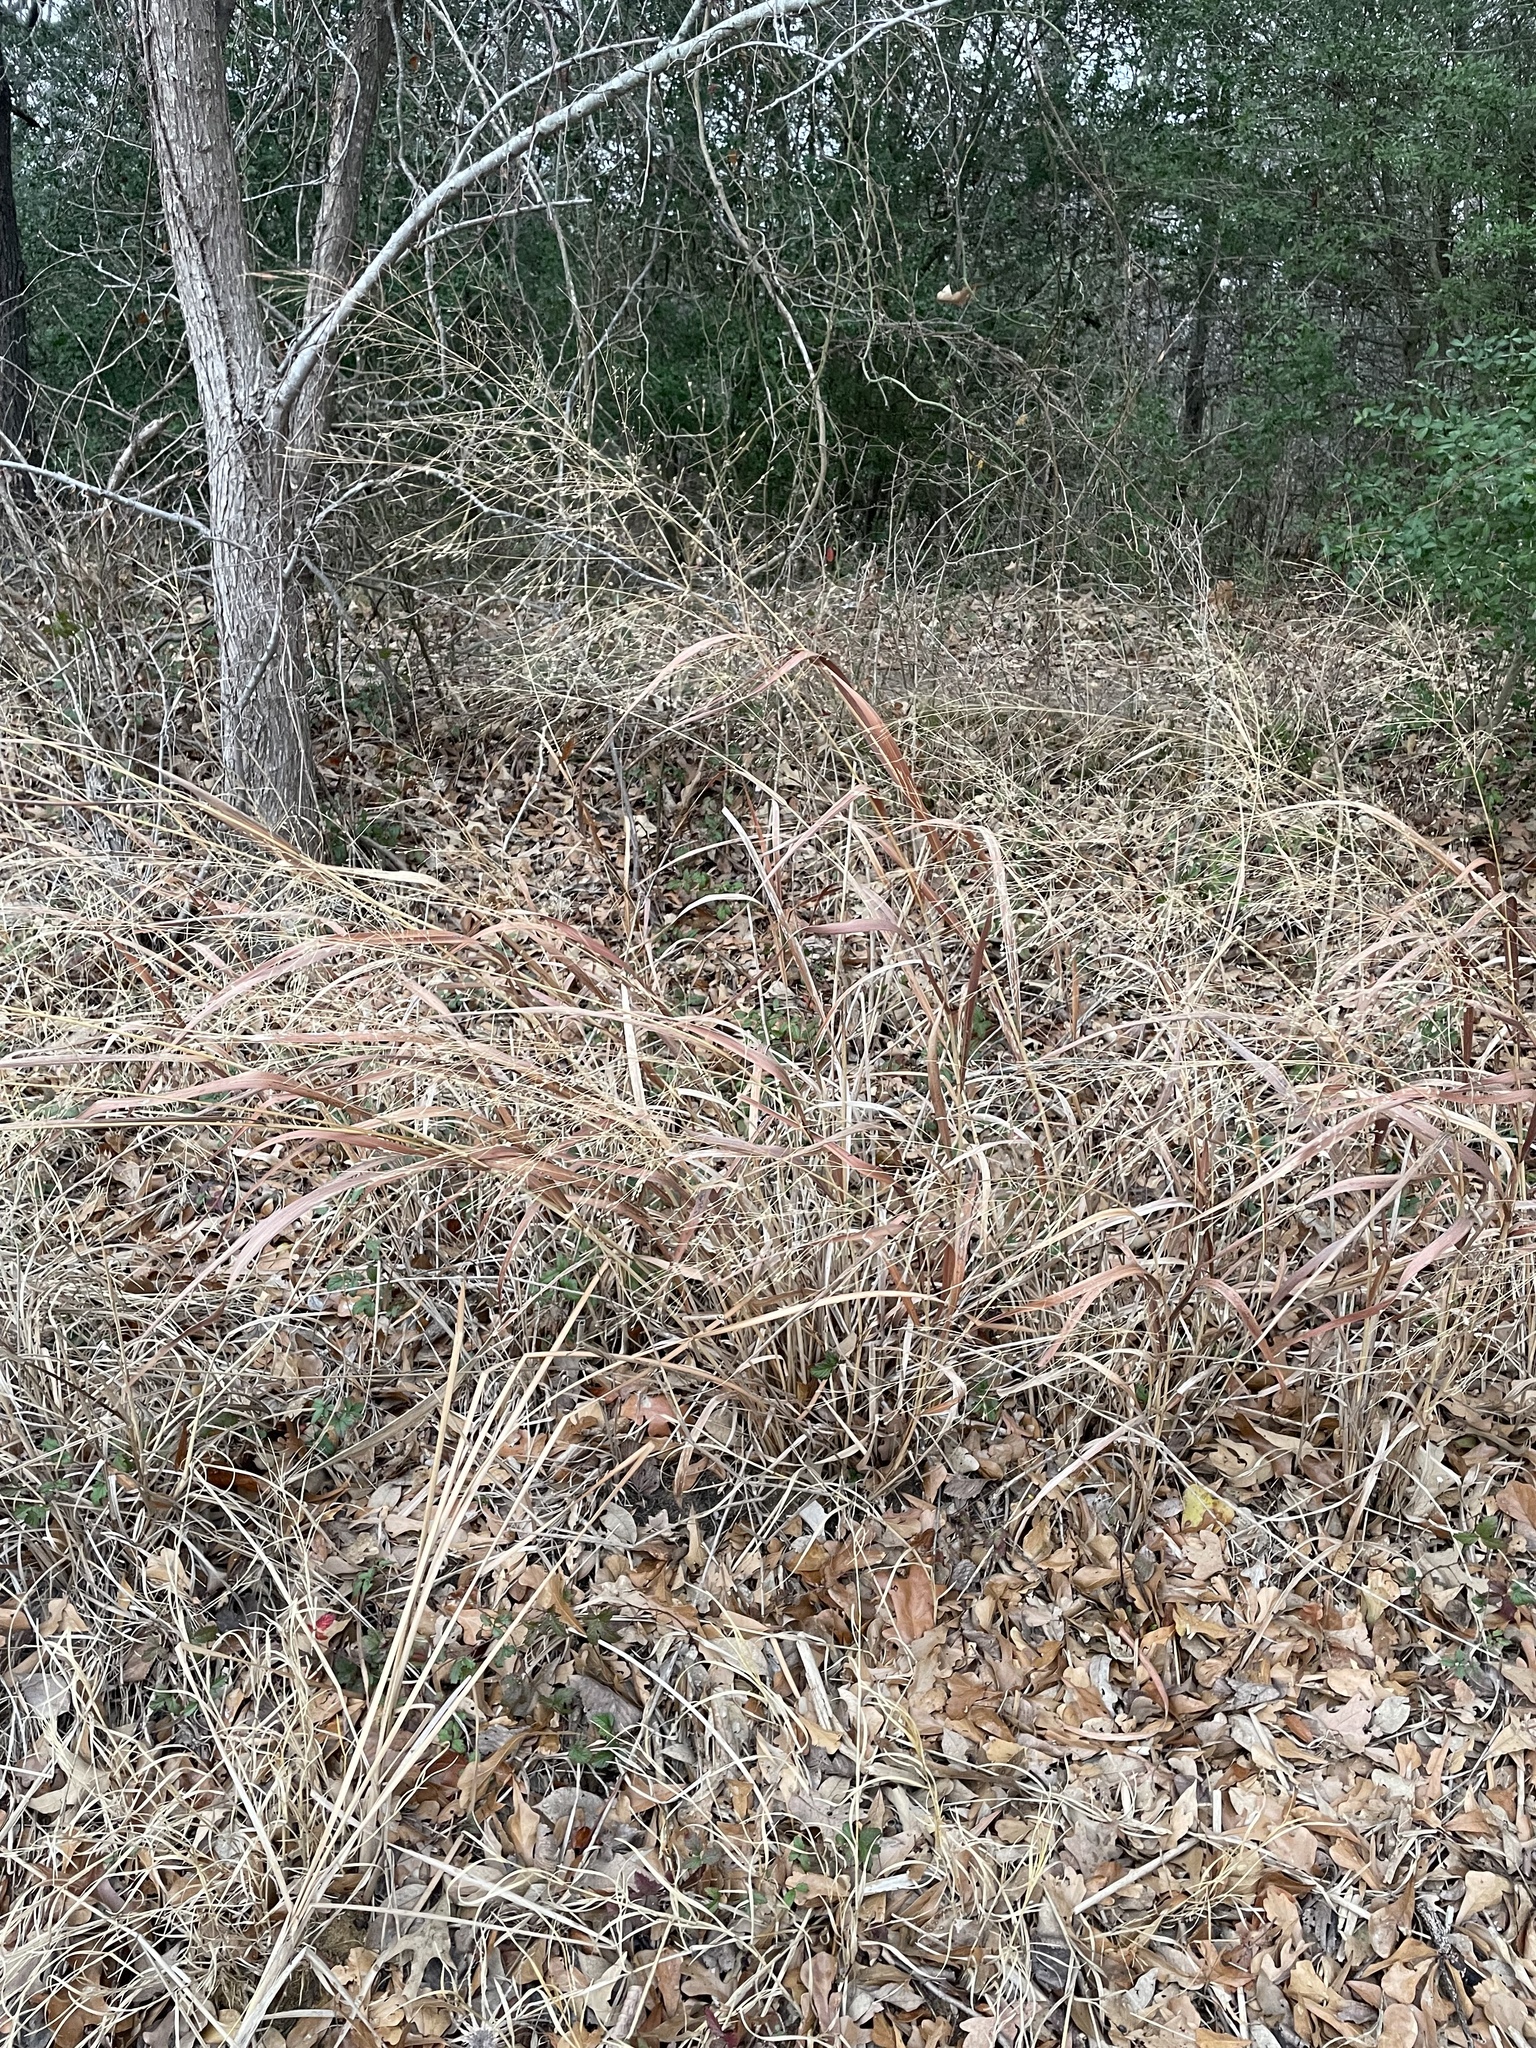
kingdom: Plantae
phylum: Tracheophyta
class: Liliopsida
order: Poales
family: Poaceae
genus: Panicum
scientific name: Panicum virgatum
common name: Switchgrass
